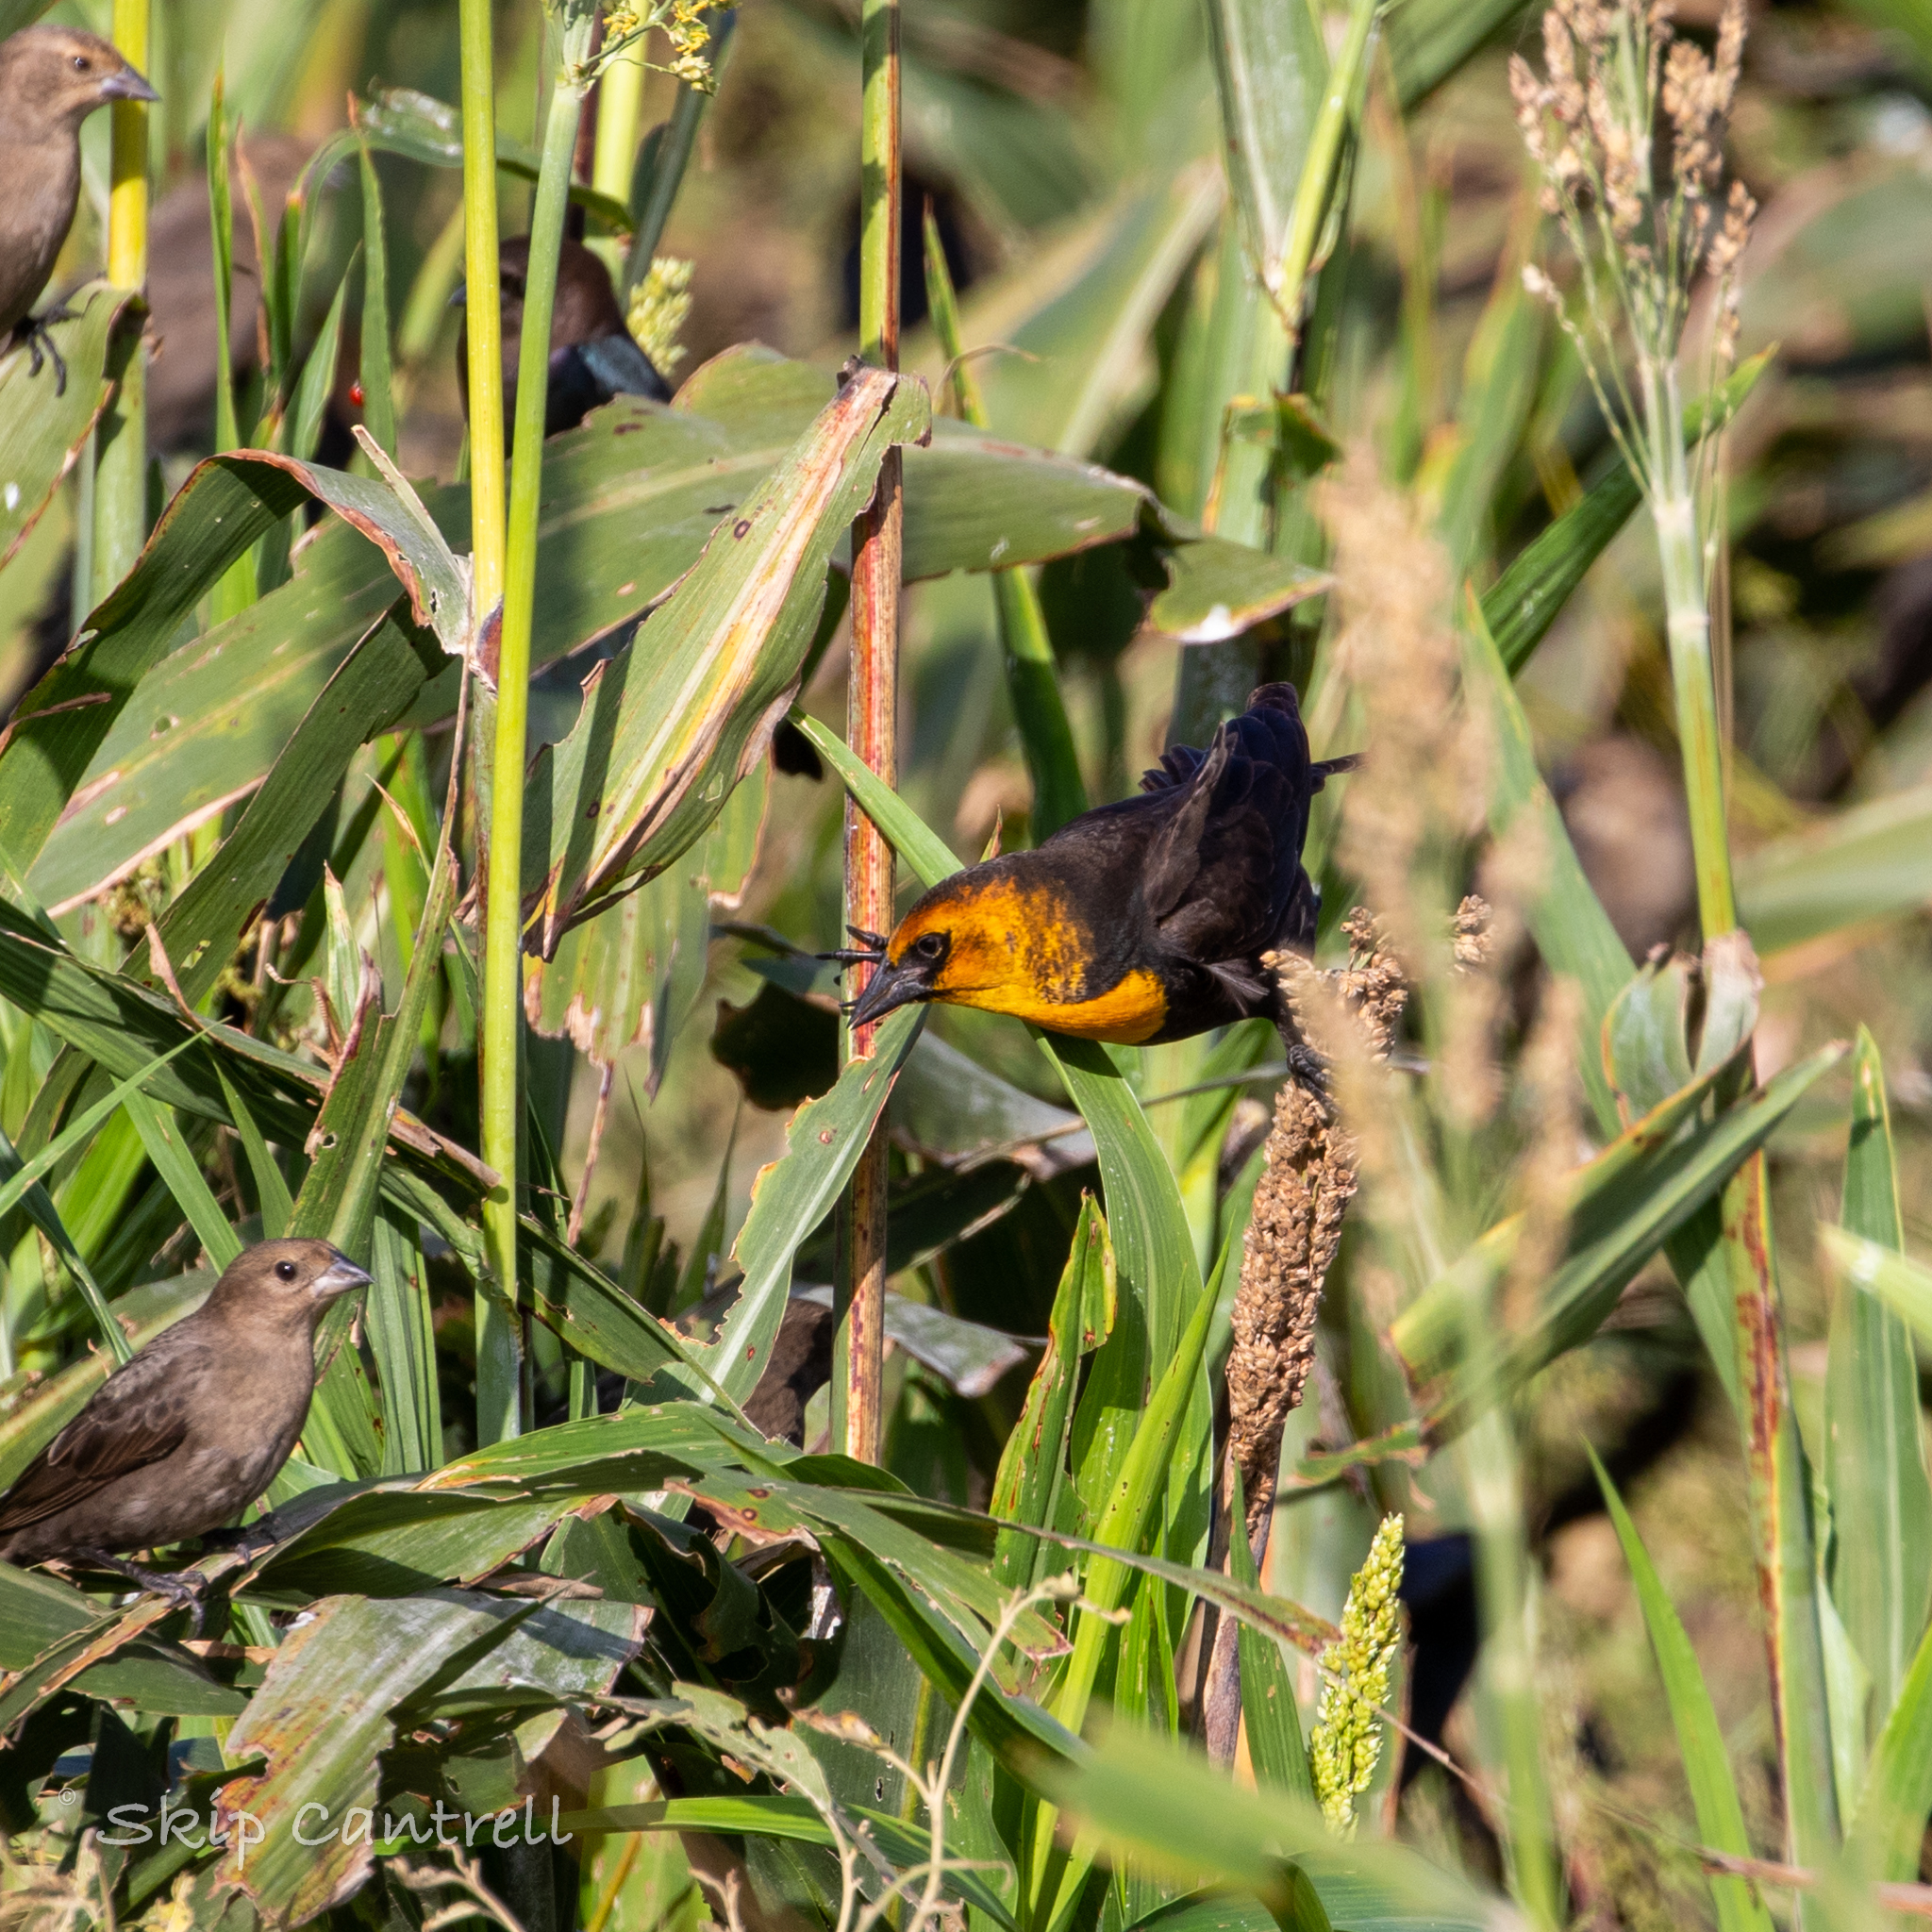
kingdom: Animalia
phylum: Chordata
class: Aves
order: Passeriformes
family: Icteridae
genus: Xanthocephalus
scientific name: Xanthocephalus xanthocephalus
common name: Yellow-headed blackbird
